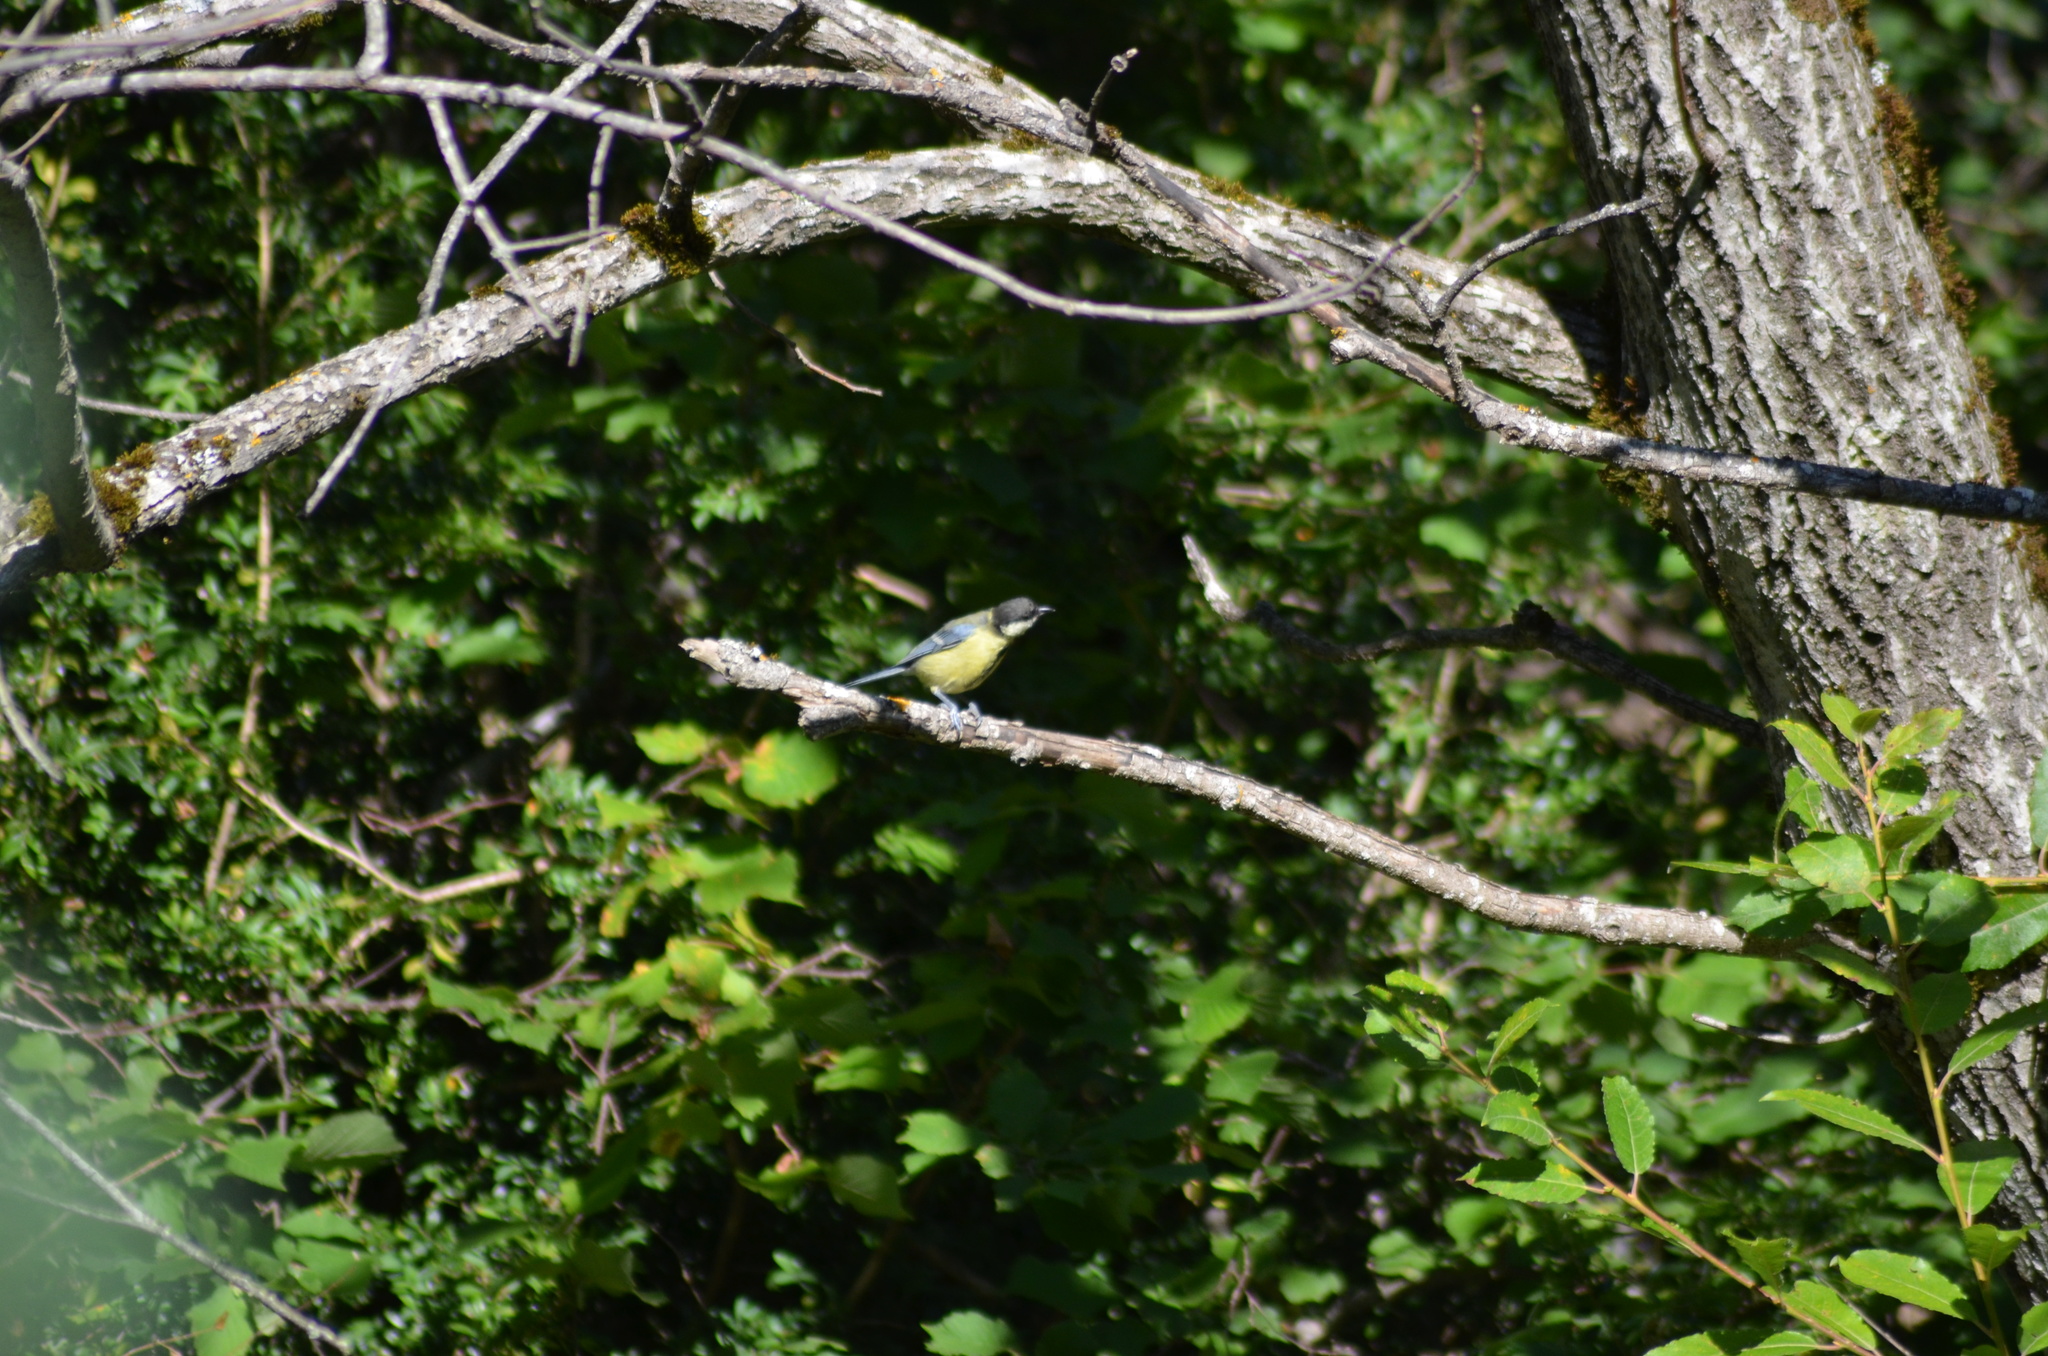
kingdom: Animalia
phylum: Chordata
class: Aves
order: Passeriformes
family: Paridae
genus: Parus
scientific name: Parus major
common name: Great tit
